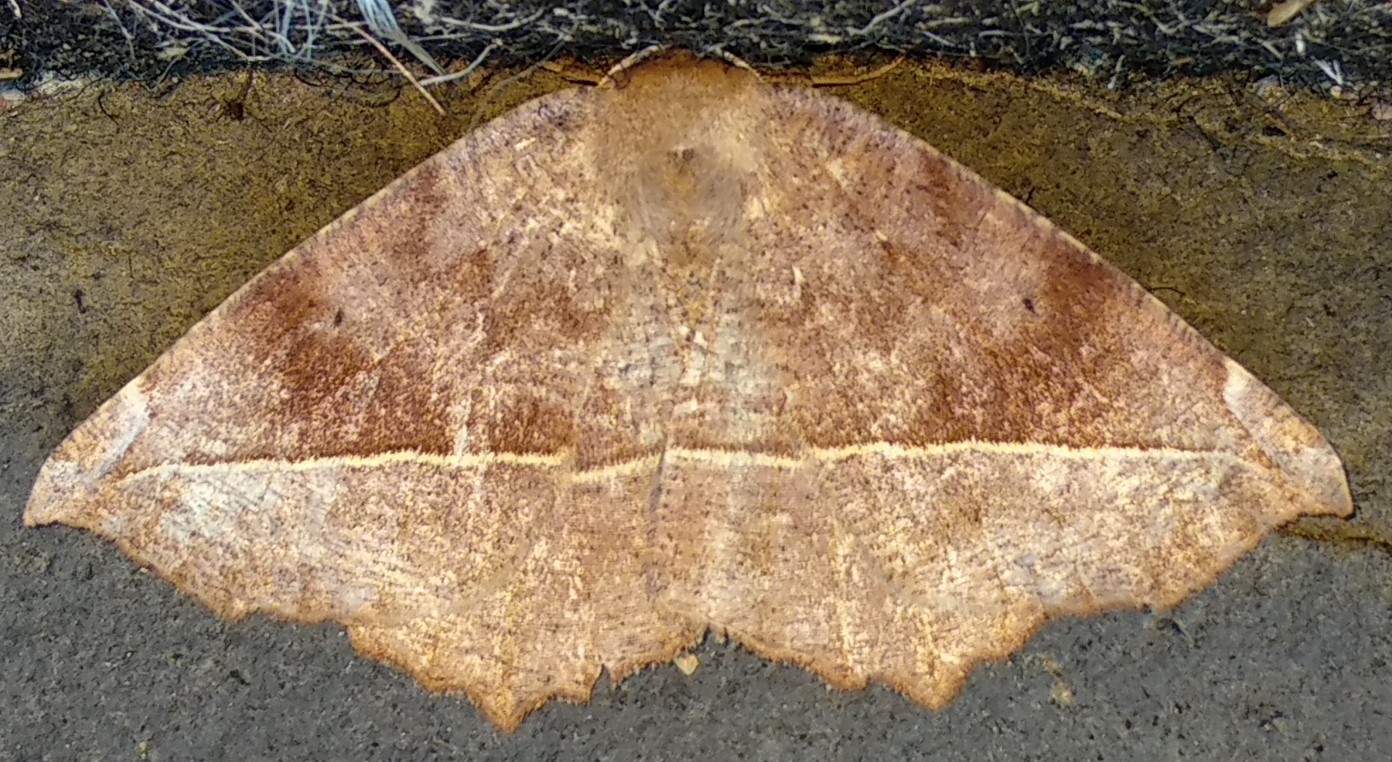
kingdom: Animalia
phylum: Arthropoda
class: Insecta
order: Lepidoptera
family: Geometridae
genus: Eutrapela
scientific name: Eutrapela clemataria
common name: Curved-toothed geometer
